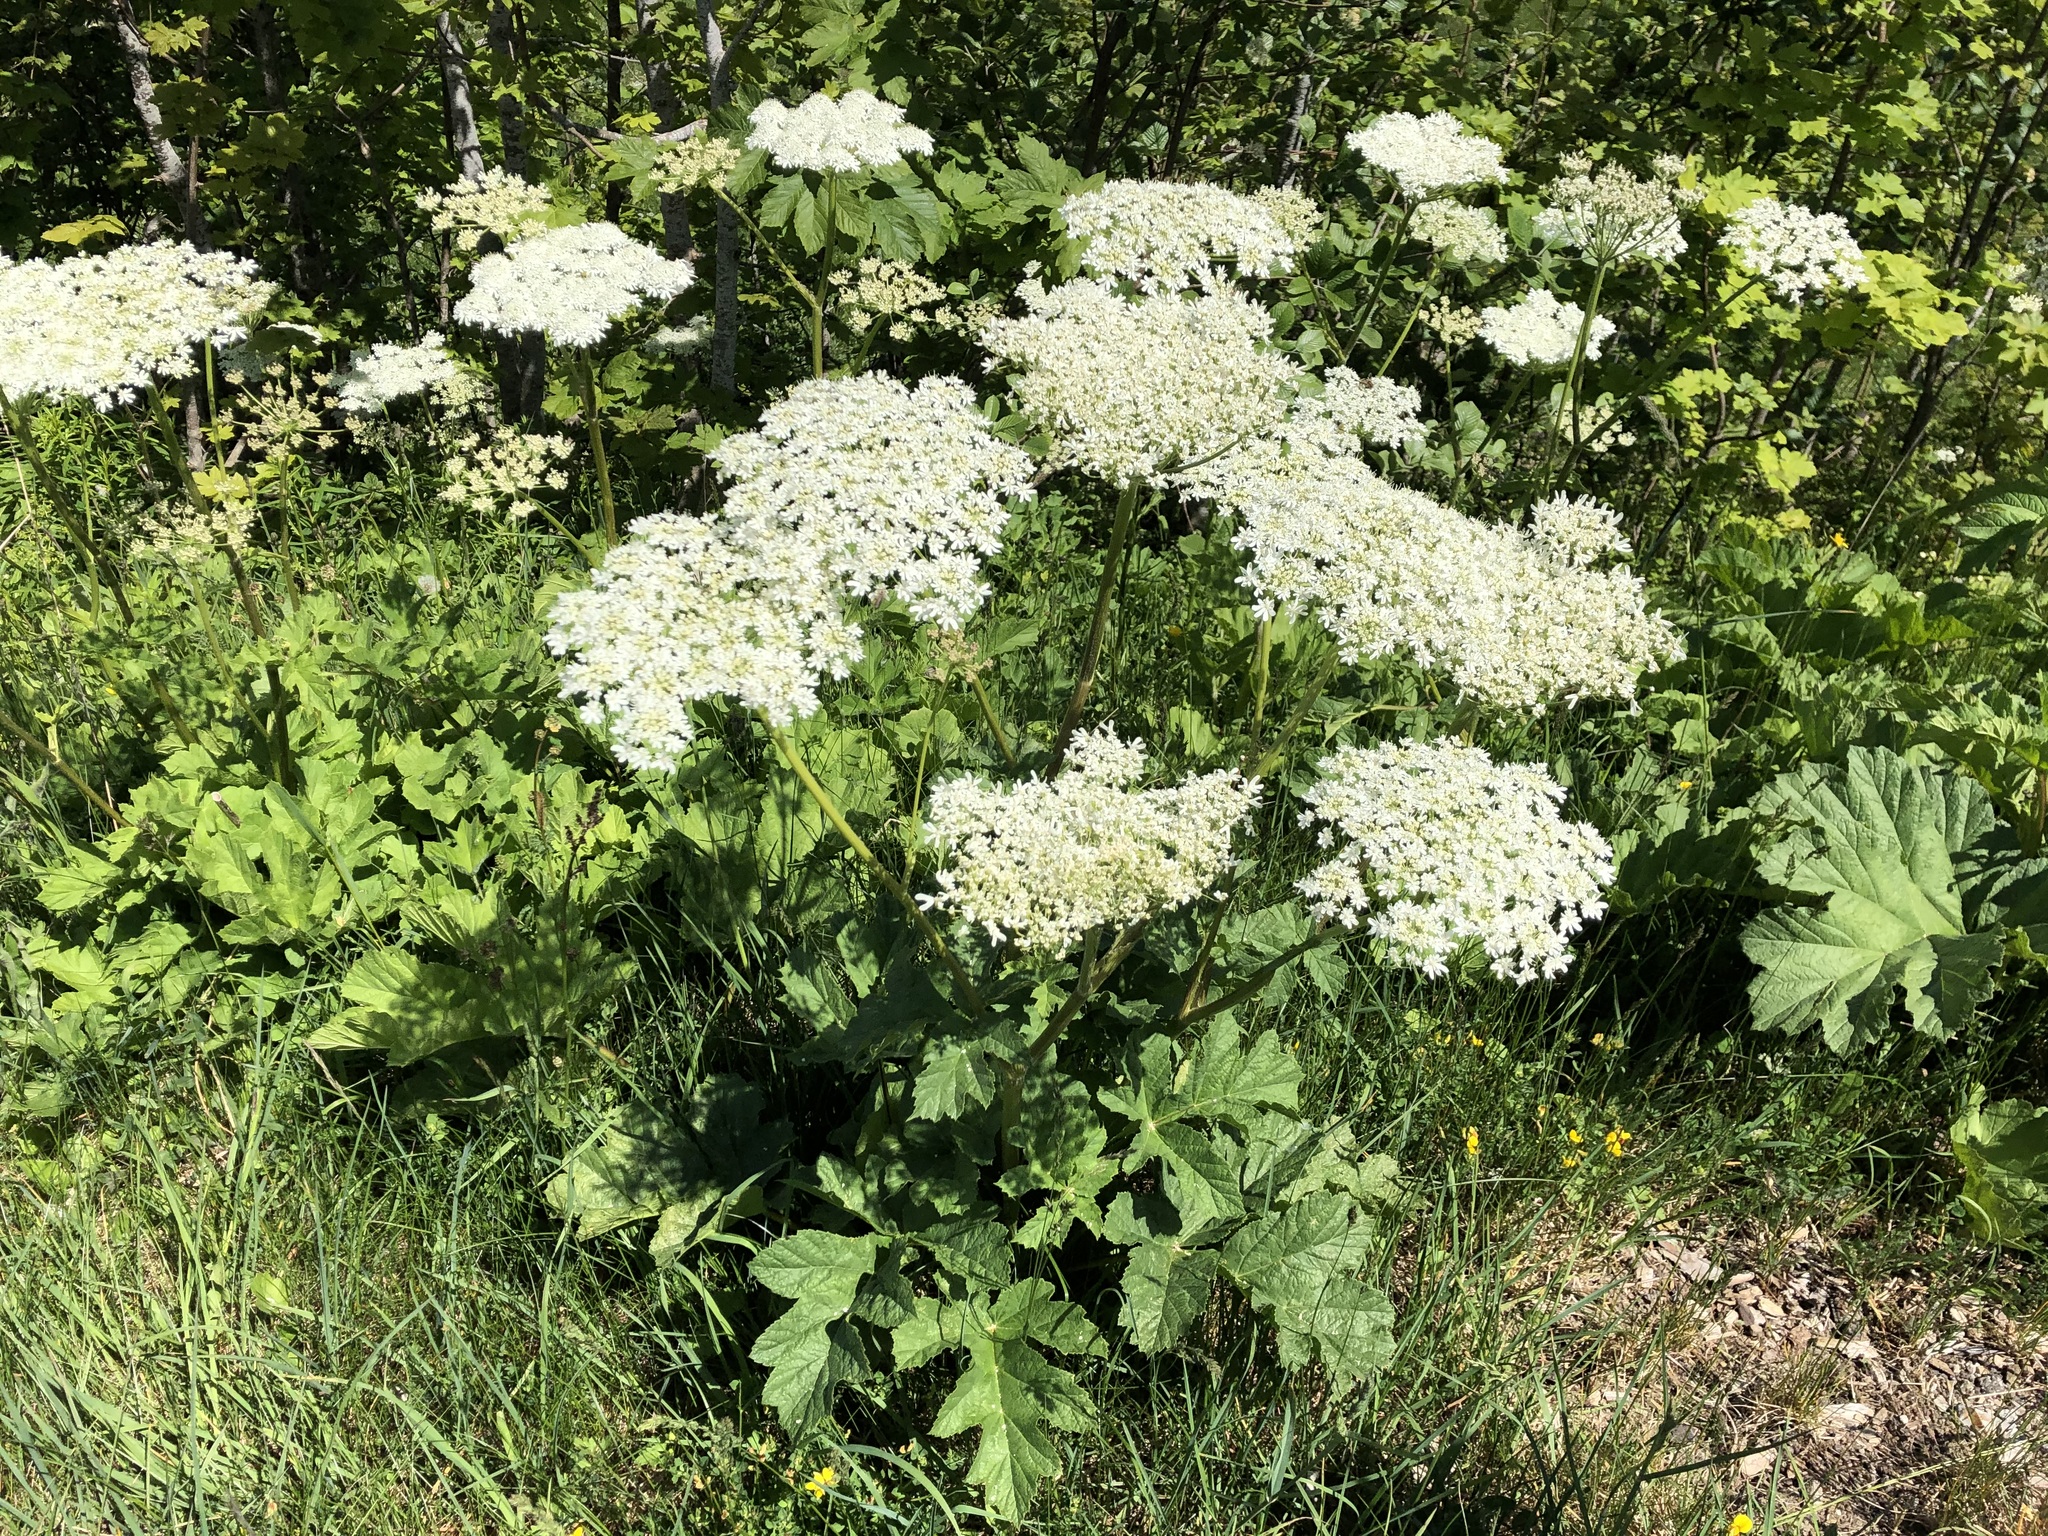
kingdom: Plantae
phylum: Tracheophyta
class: Magnoliopsida
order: Apiales
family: Apiaceae
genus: Heracleum
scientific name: Heracleum sphondylium
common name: Hogweed
